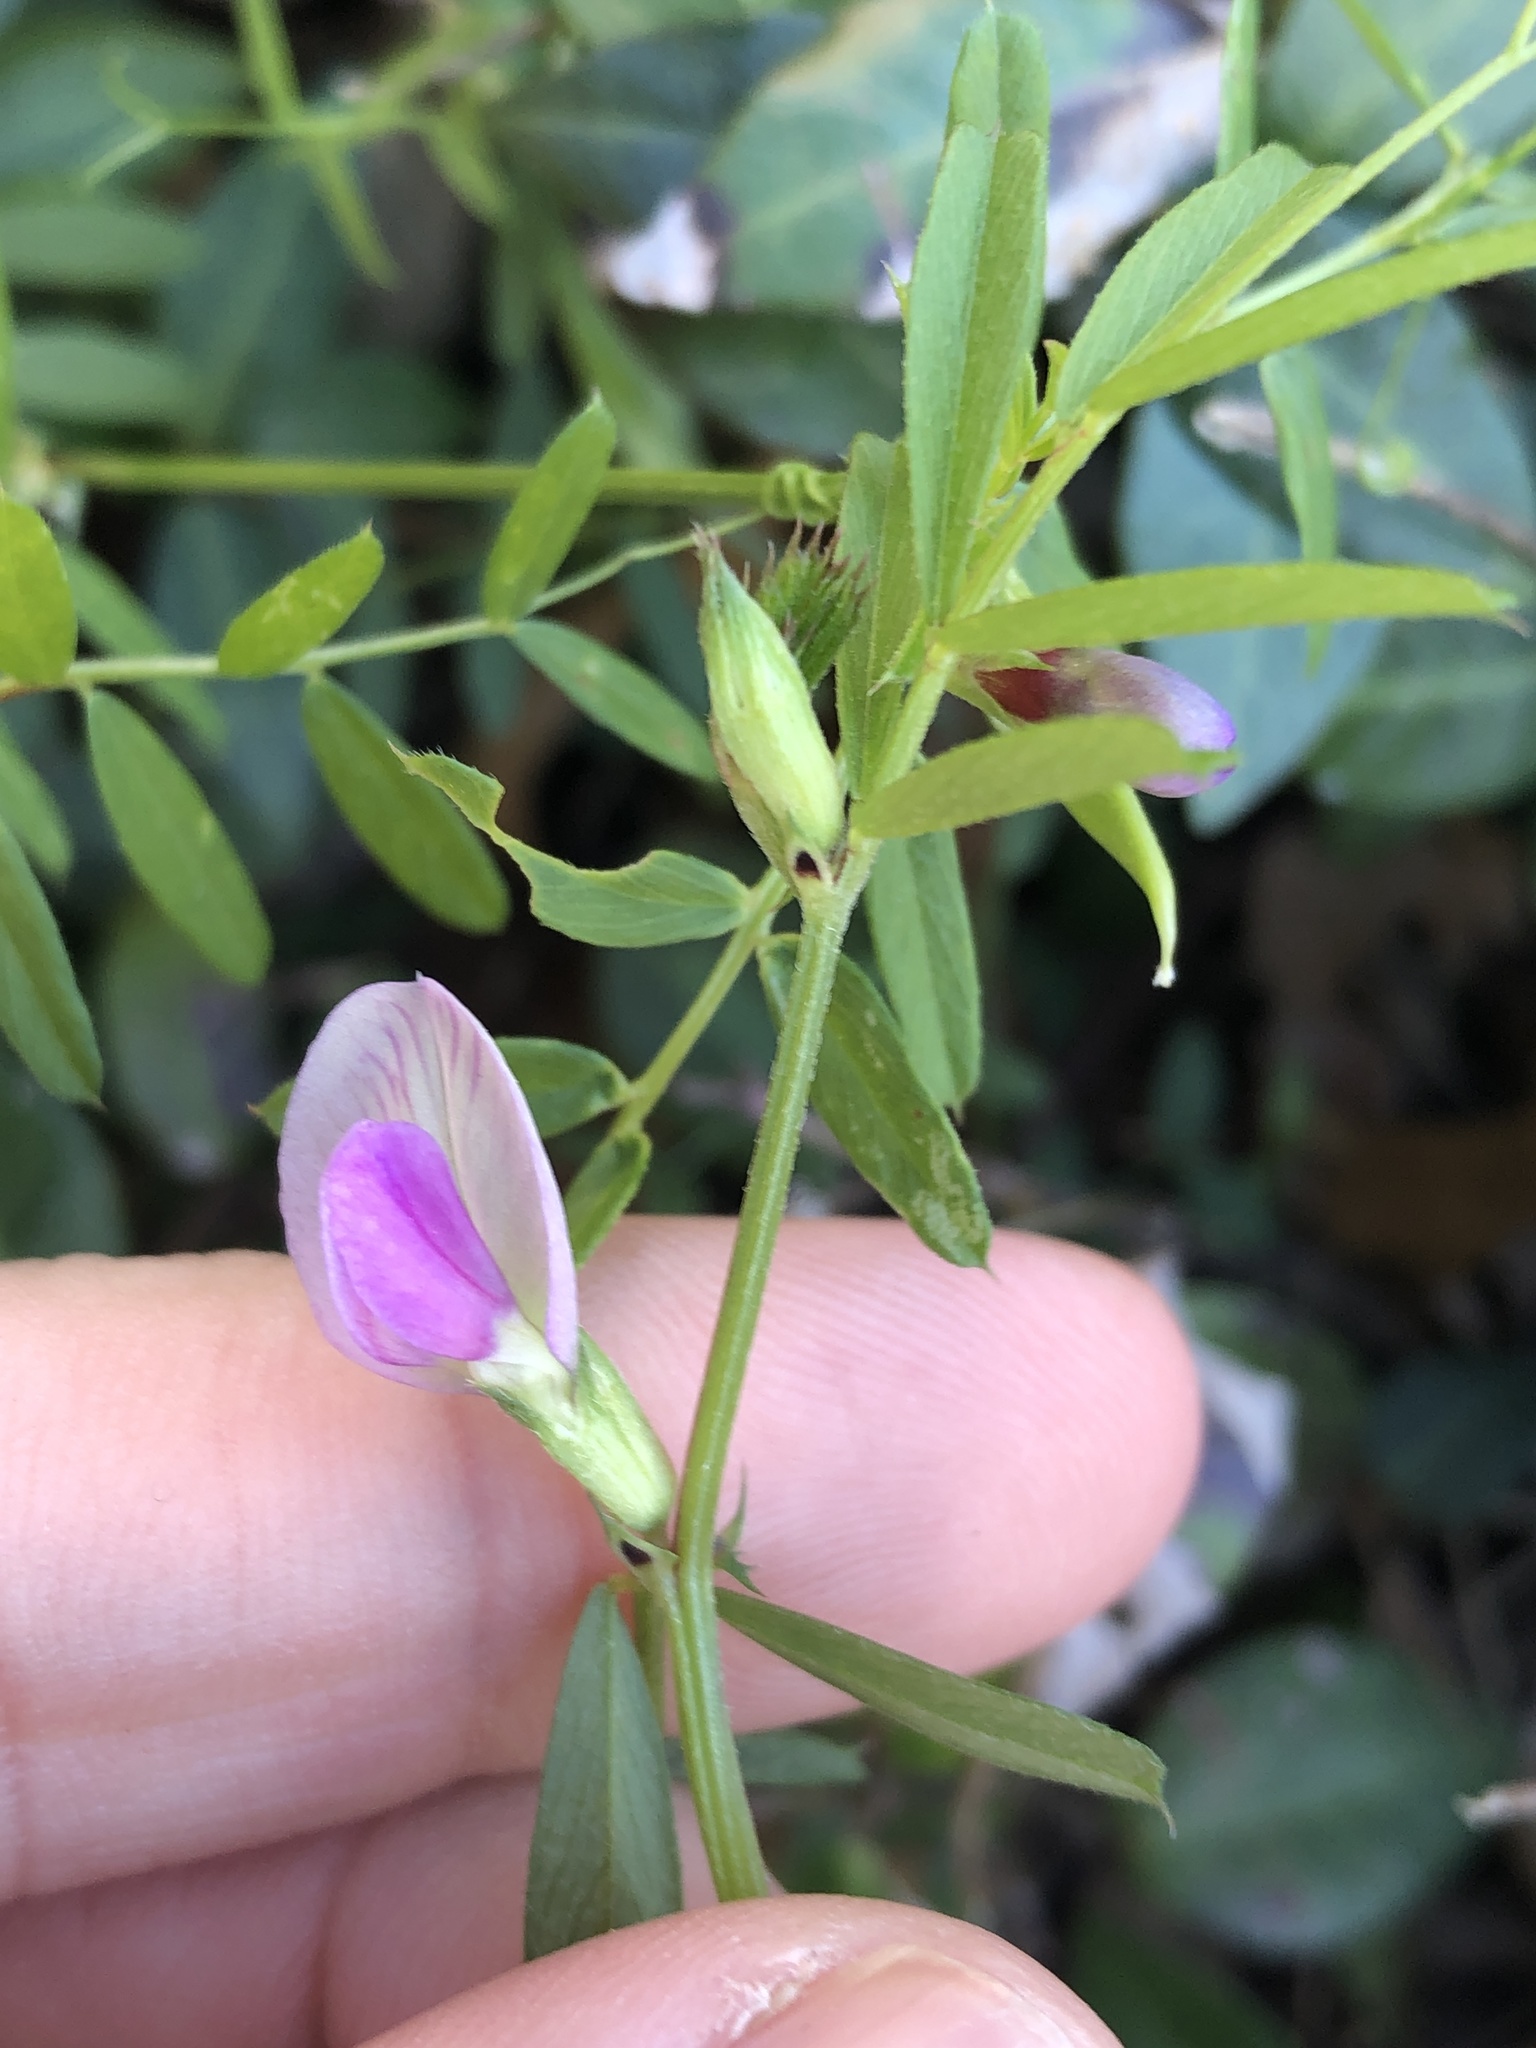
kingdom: Plantae
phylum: Tracheophyta
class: Magnoliopsida
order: Fabales
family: Fabaceae
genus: Vicia
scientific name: Vicia sativa
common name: Garden vetch
